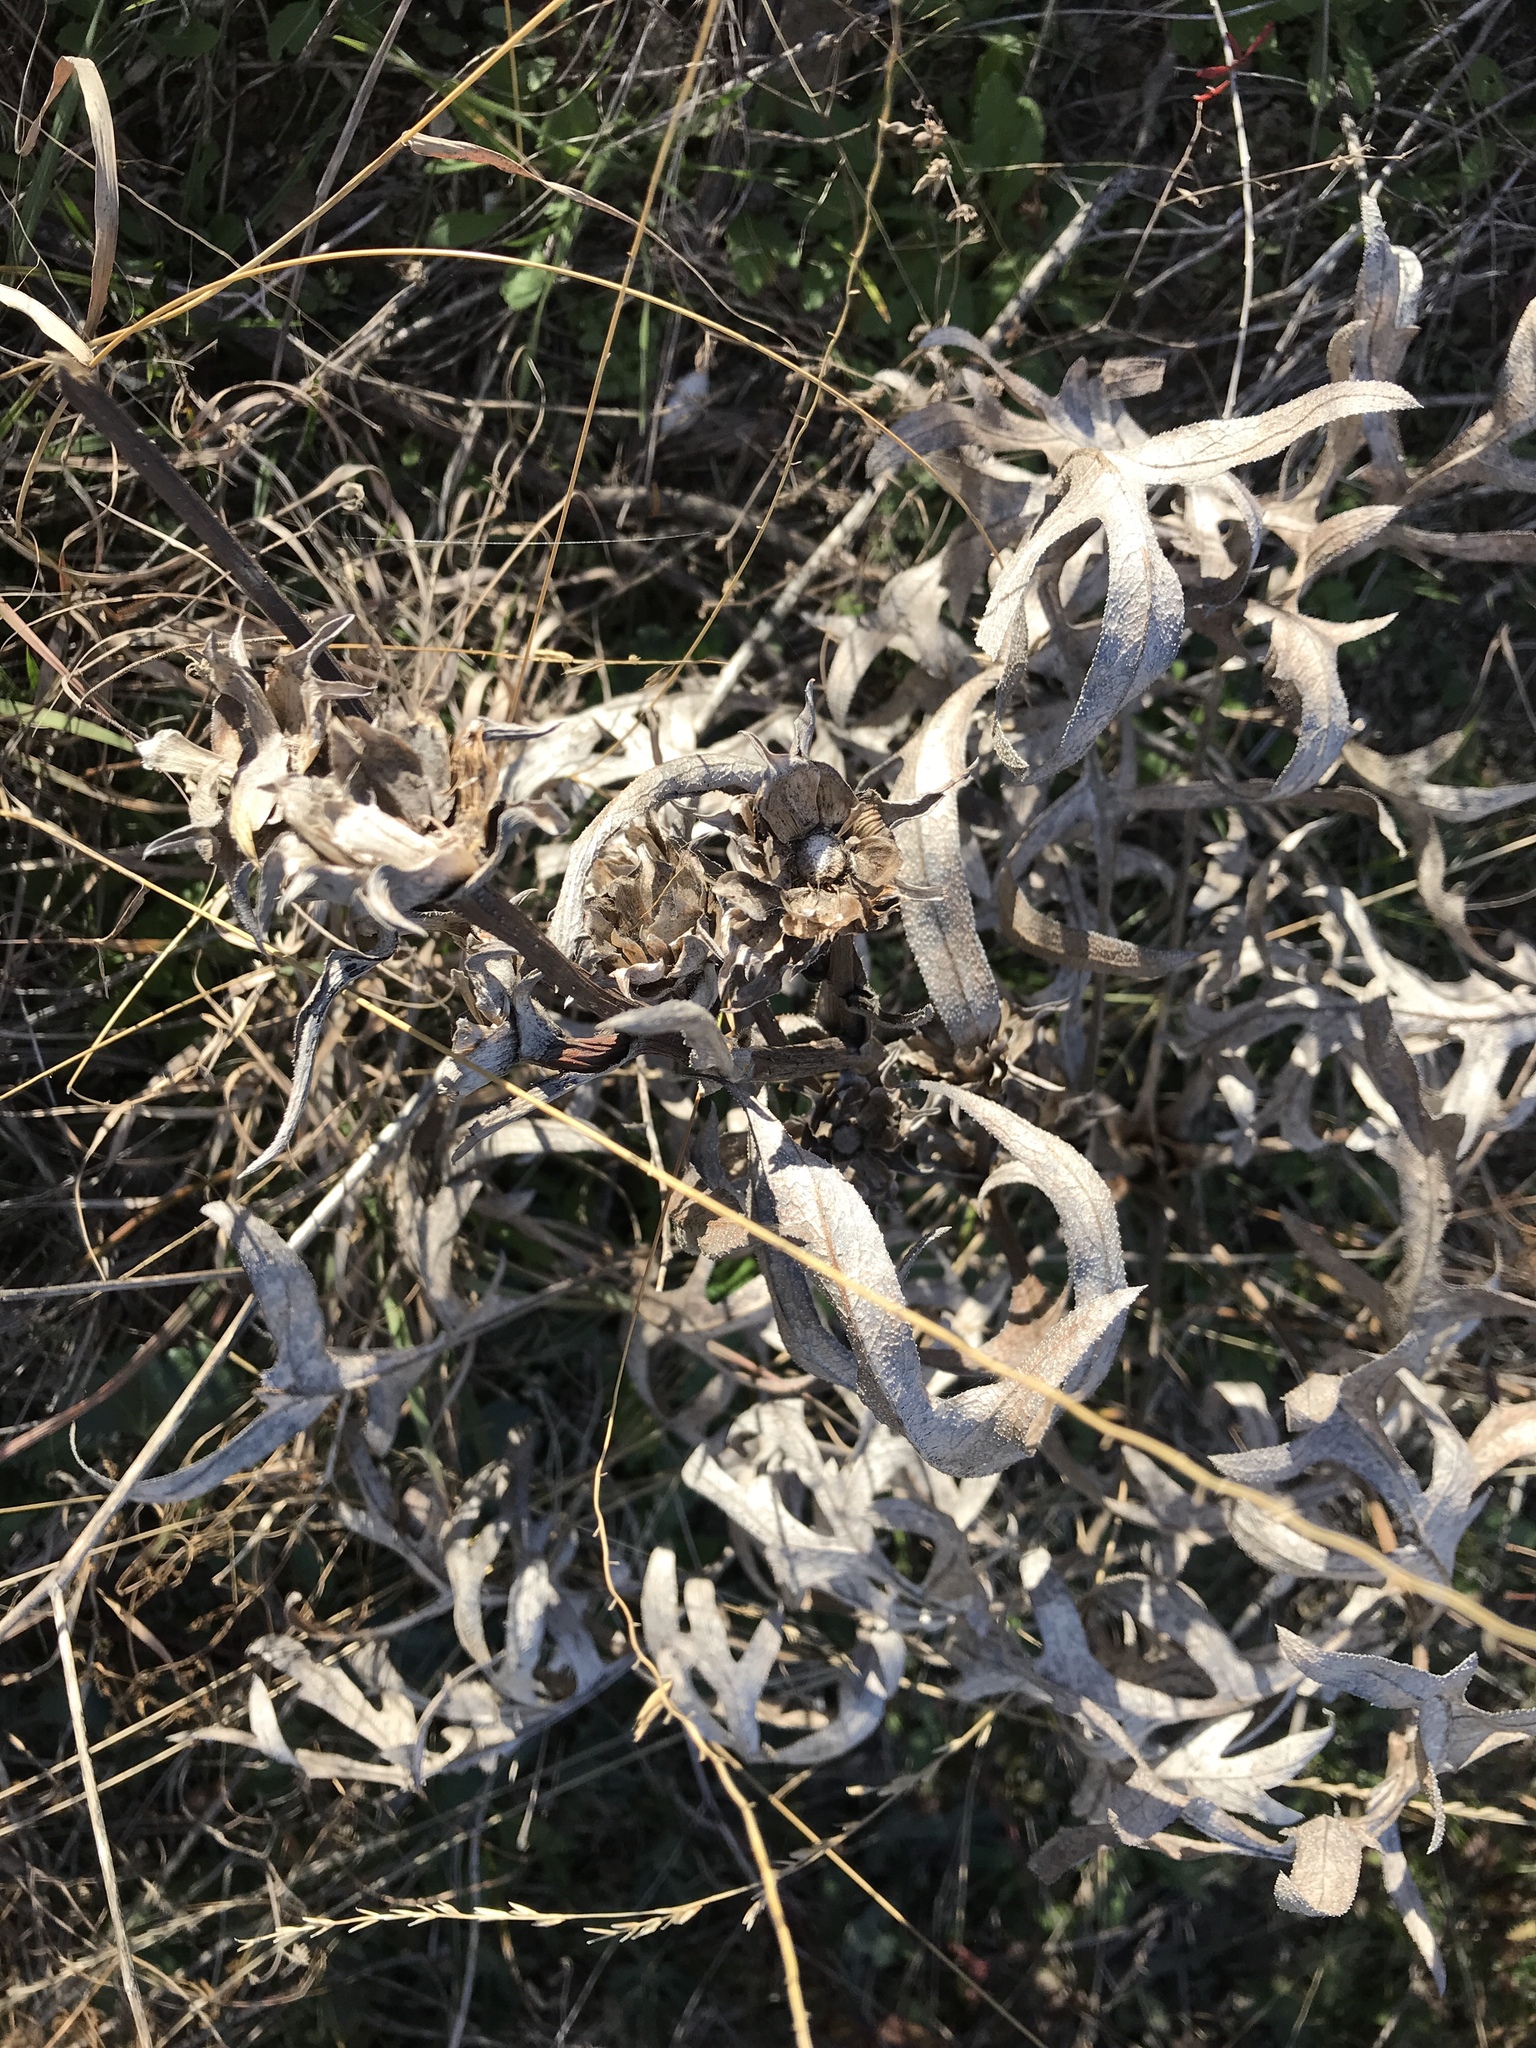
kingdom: Plantae
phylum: Tracheophyta
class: Magnoliopsida
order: Asterales
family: Asteraceae
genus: Silphium
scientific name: Silphium albiflorum
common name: White rosinweed
